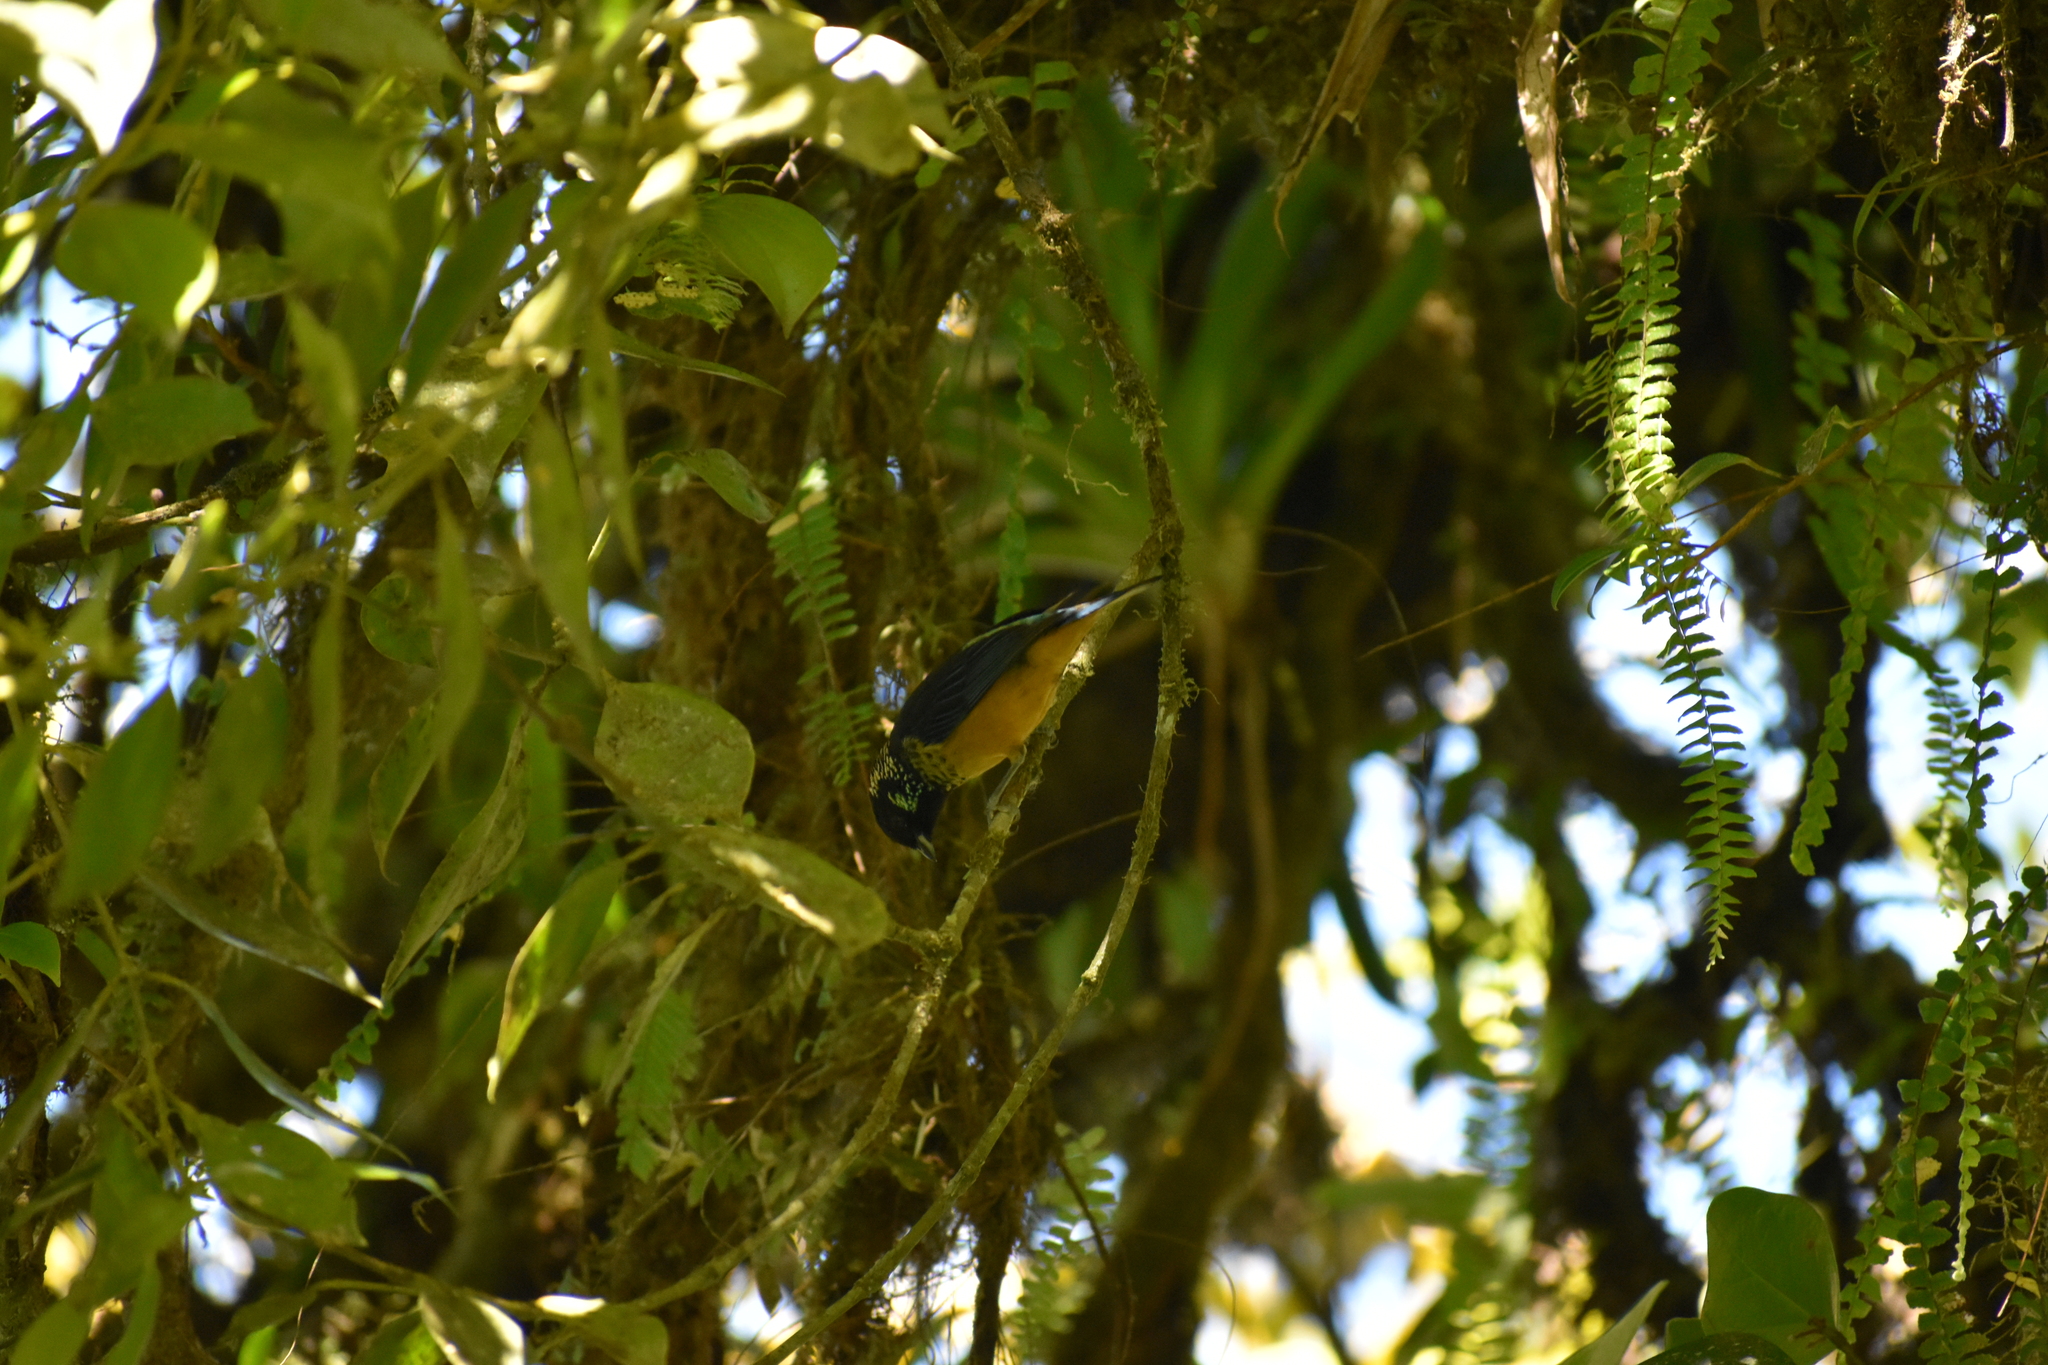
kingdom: Animalia
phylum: Chordata
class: Aves
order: Passeriformes
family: Thraupidae
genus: Tangara
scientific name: Tangara dowii
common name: Spangle-cheeked tanager
